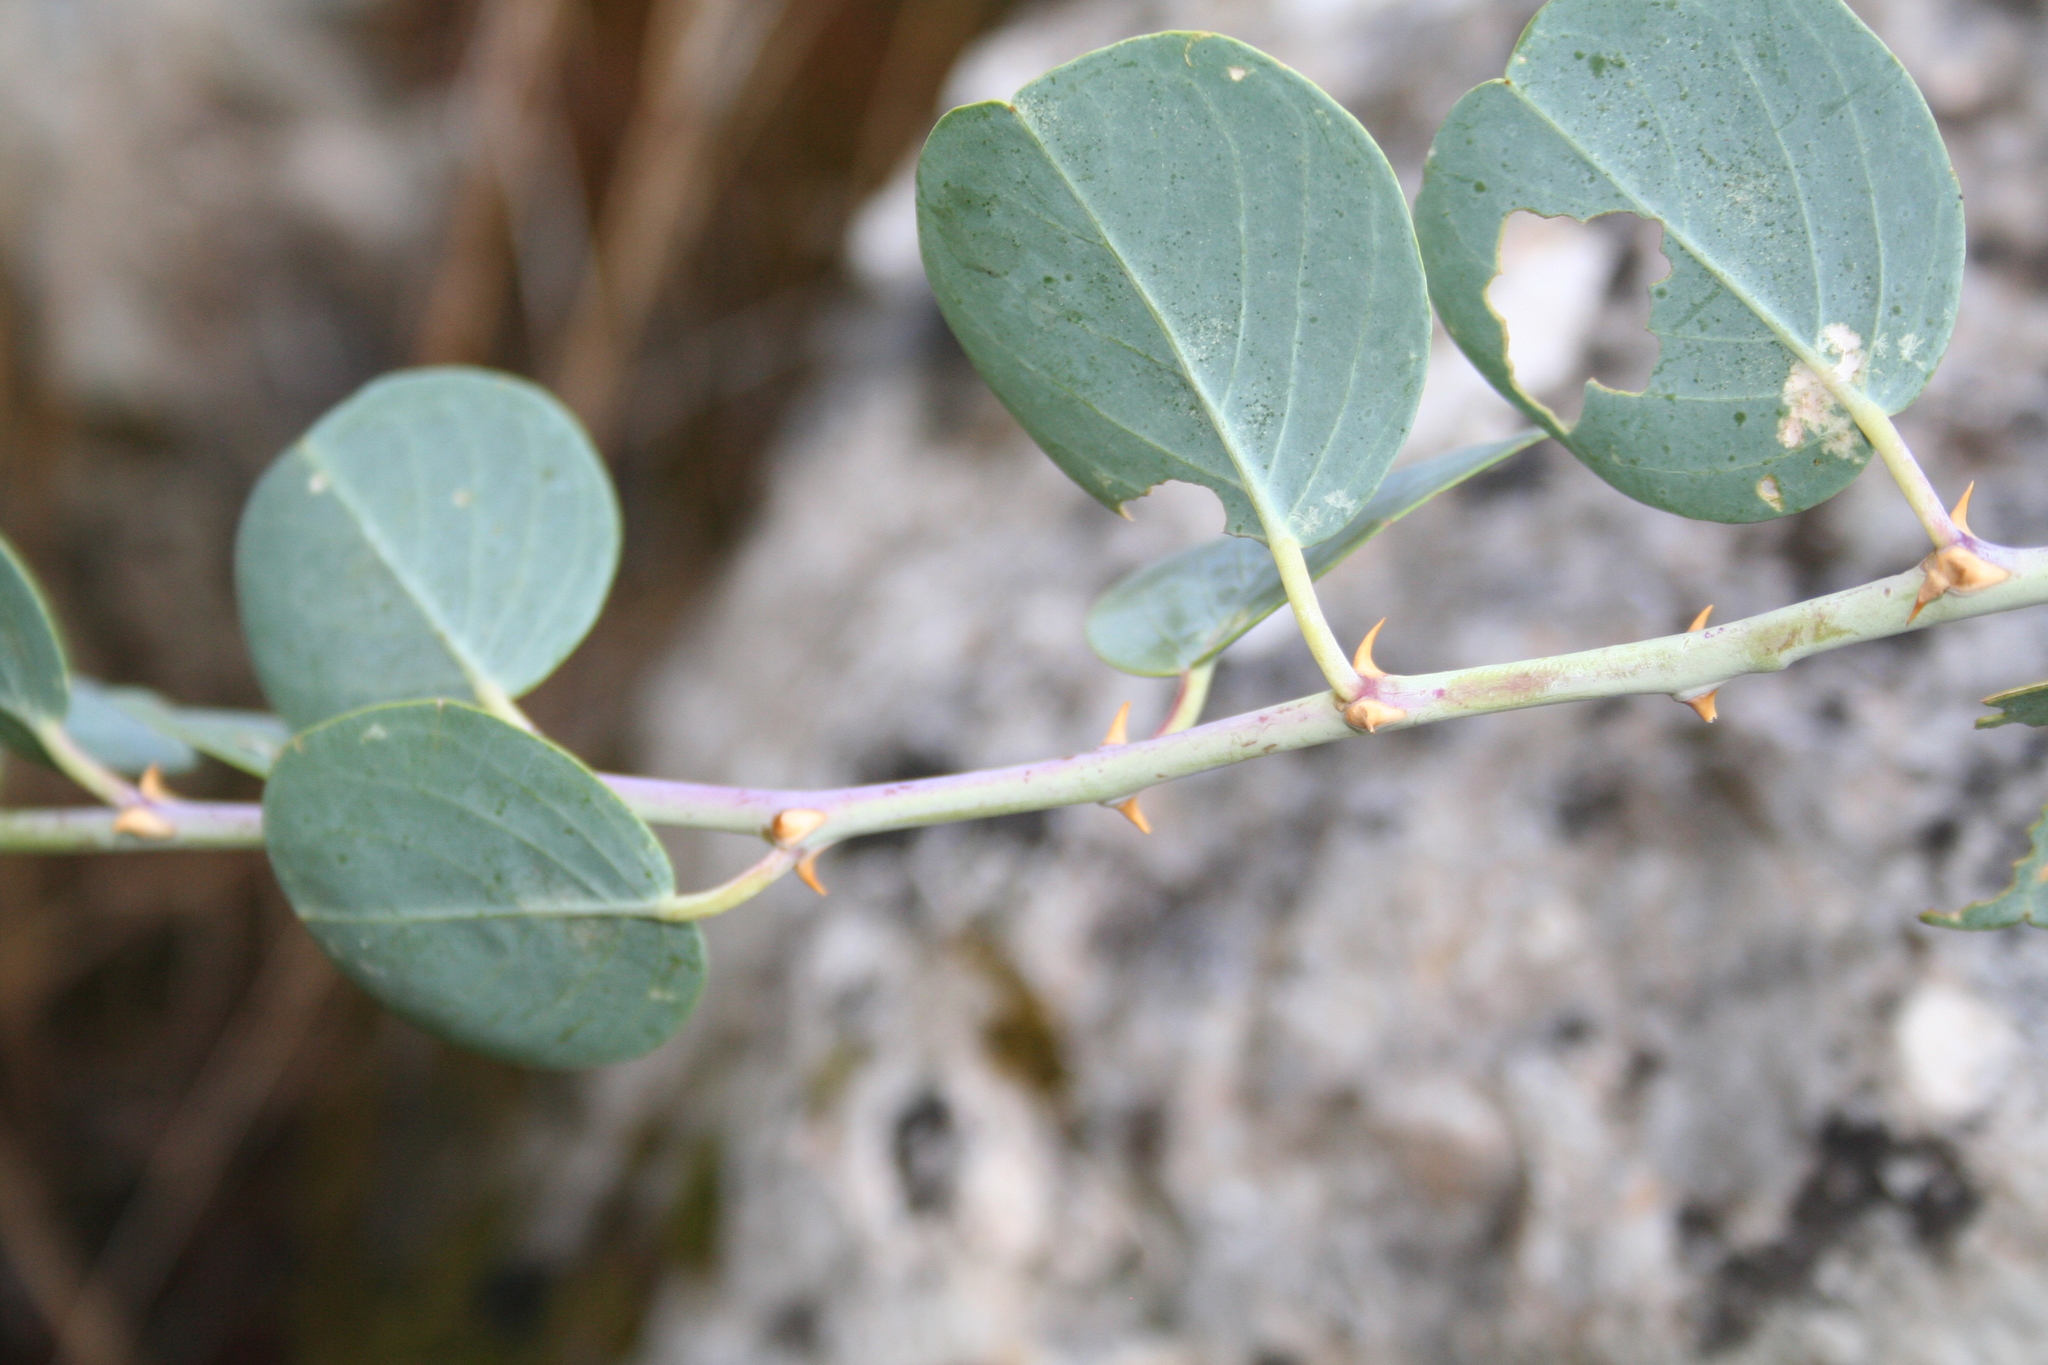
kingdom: Plantae
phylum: Tracheophyta
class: Magnoliopsida
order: Brassicales
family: Capparaceae
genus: Capparis
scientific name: Capparis spinosa
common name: Caper
